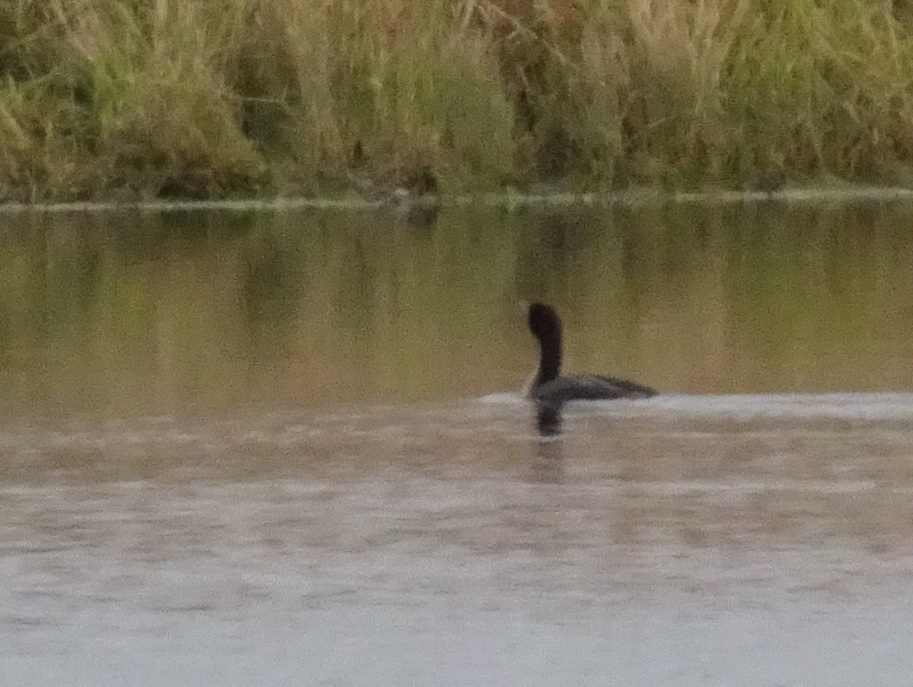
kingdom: Animalia
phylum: Chordata
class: Aves
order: Suliformes
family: Phalacrocoracidae
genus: Phalacrocorax
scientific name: Phalacrocorax auritus
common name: Double-crested cormorant
